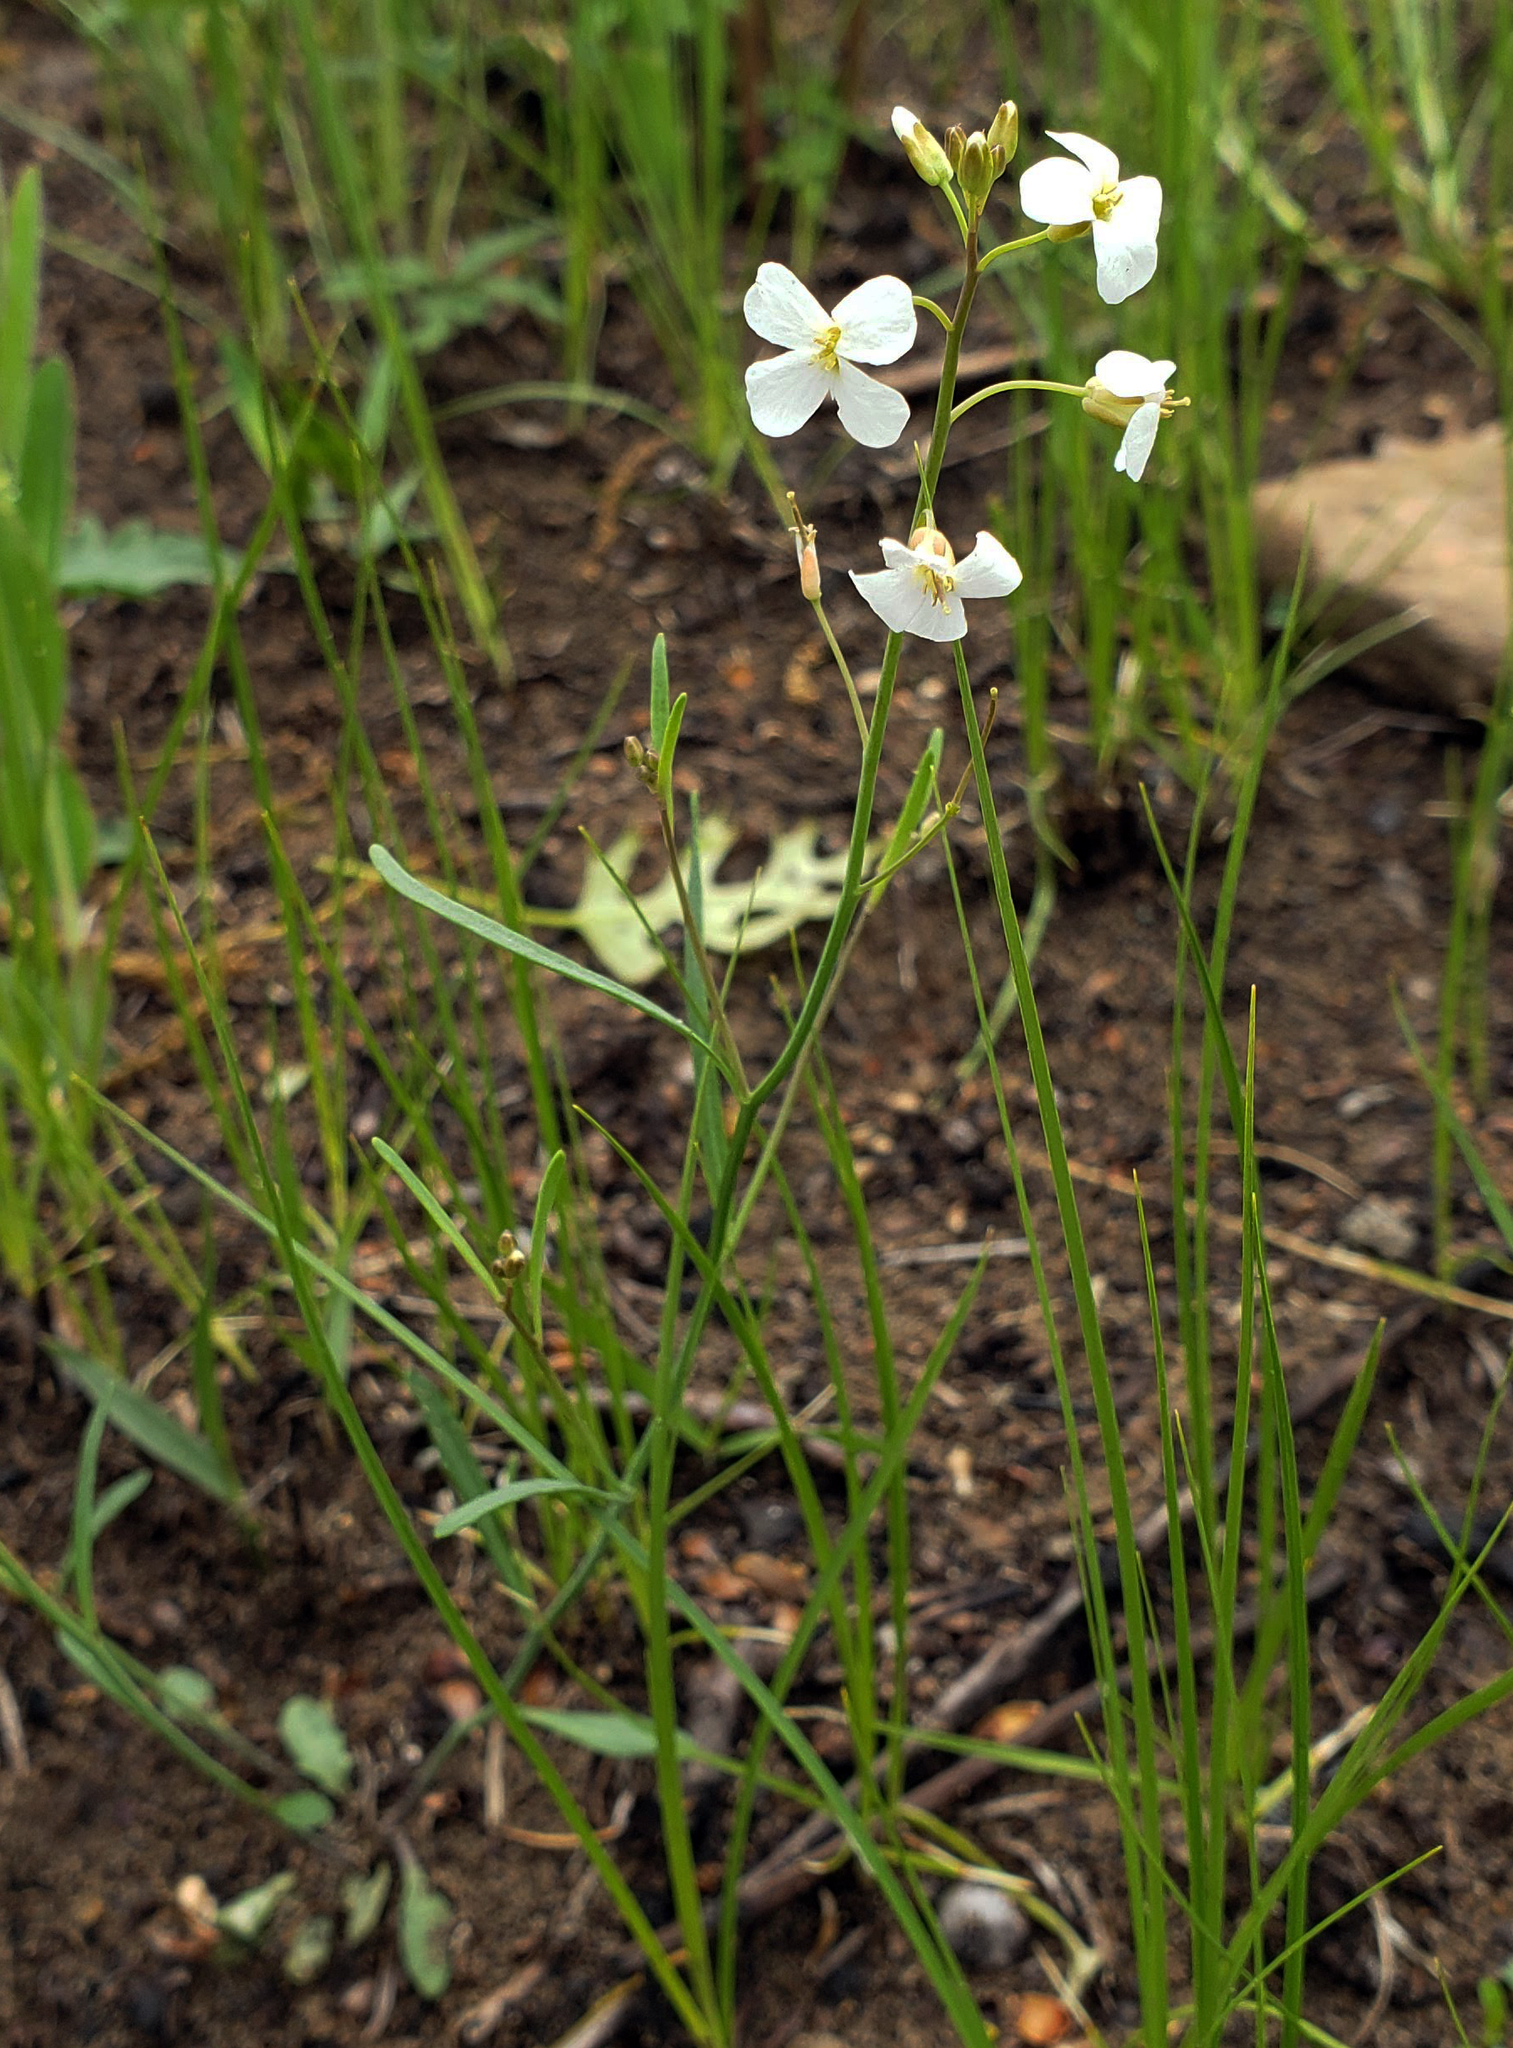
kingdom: Plantae
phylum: Tracheophyta
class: Magnoliopsida
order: Brassicales
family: Brassicaceae
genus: Arabidopsis
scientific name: Arabidopsis lyrata
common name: Lyrate rockcress
